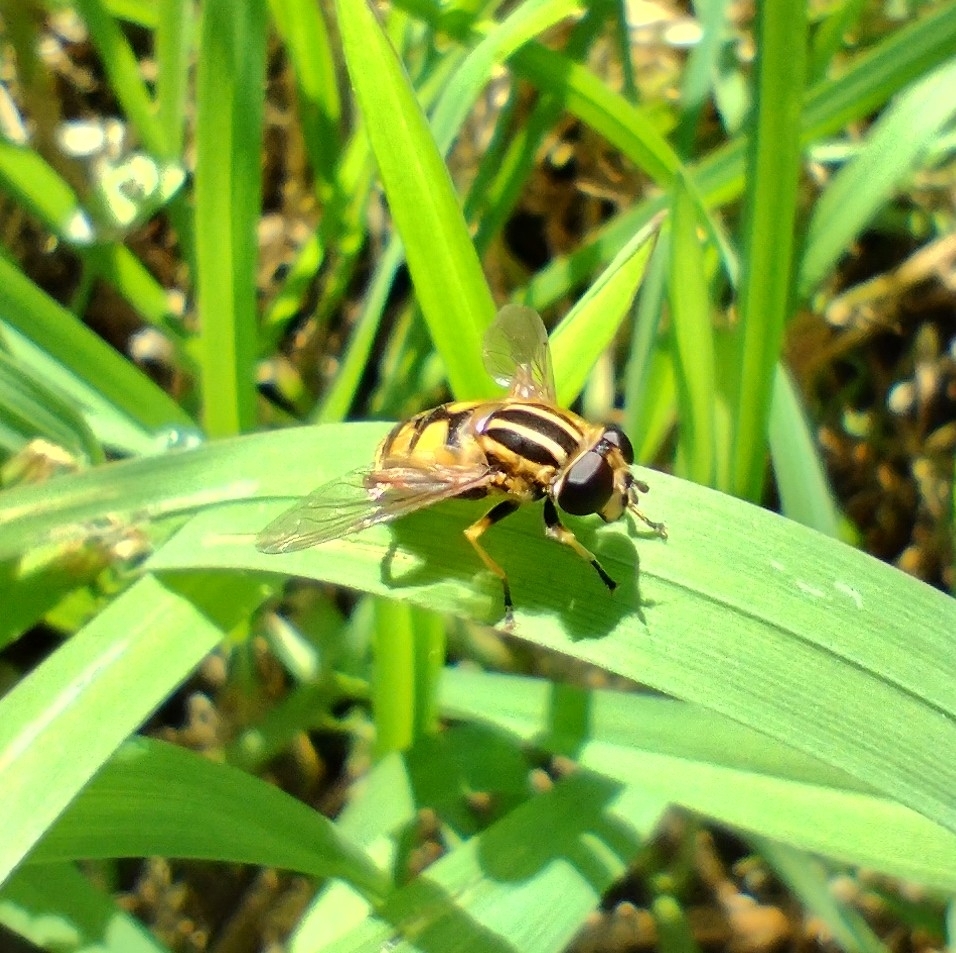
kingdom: Animalia
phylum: Arthropoda
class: Insecta
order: Diptera
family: Syrphidae
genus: Helophilus
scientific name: Helophilus pendulus
